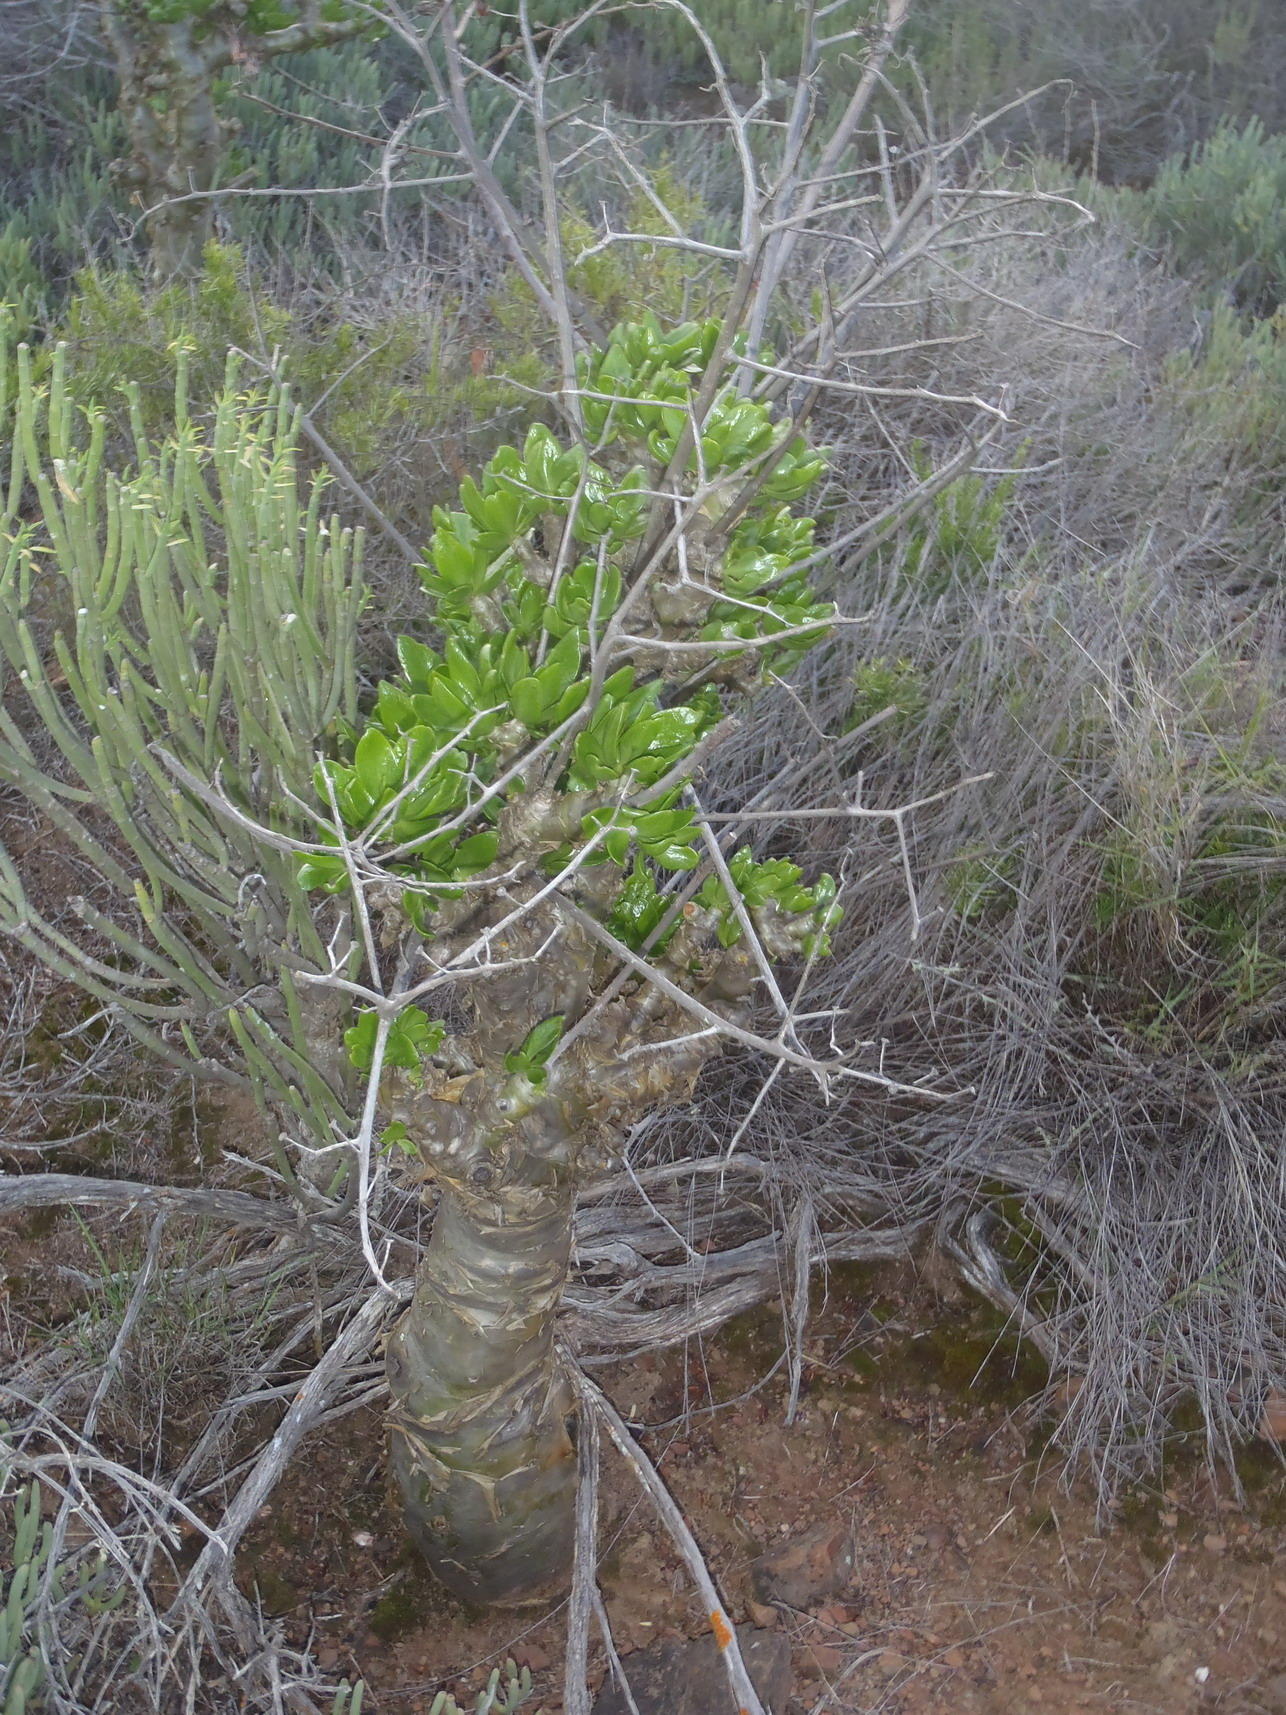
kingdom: Plantae
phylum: Tracheophyta
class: Magnoliopsida
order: Saxifragales
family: Crassulaceae
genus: Tylecodon
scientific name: Tylecodon paniculatus
